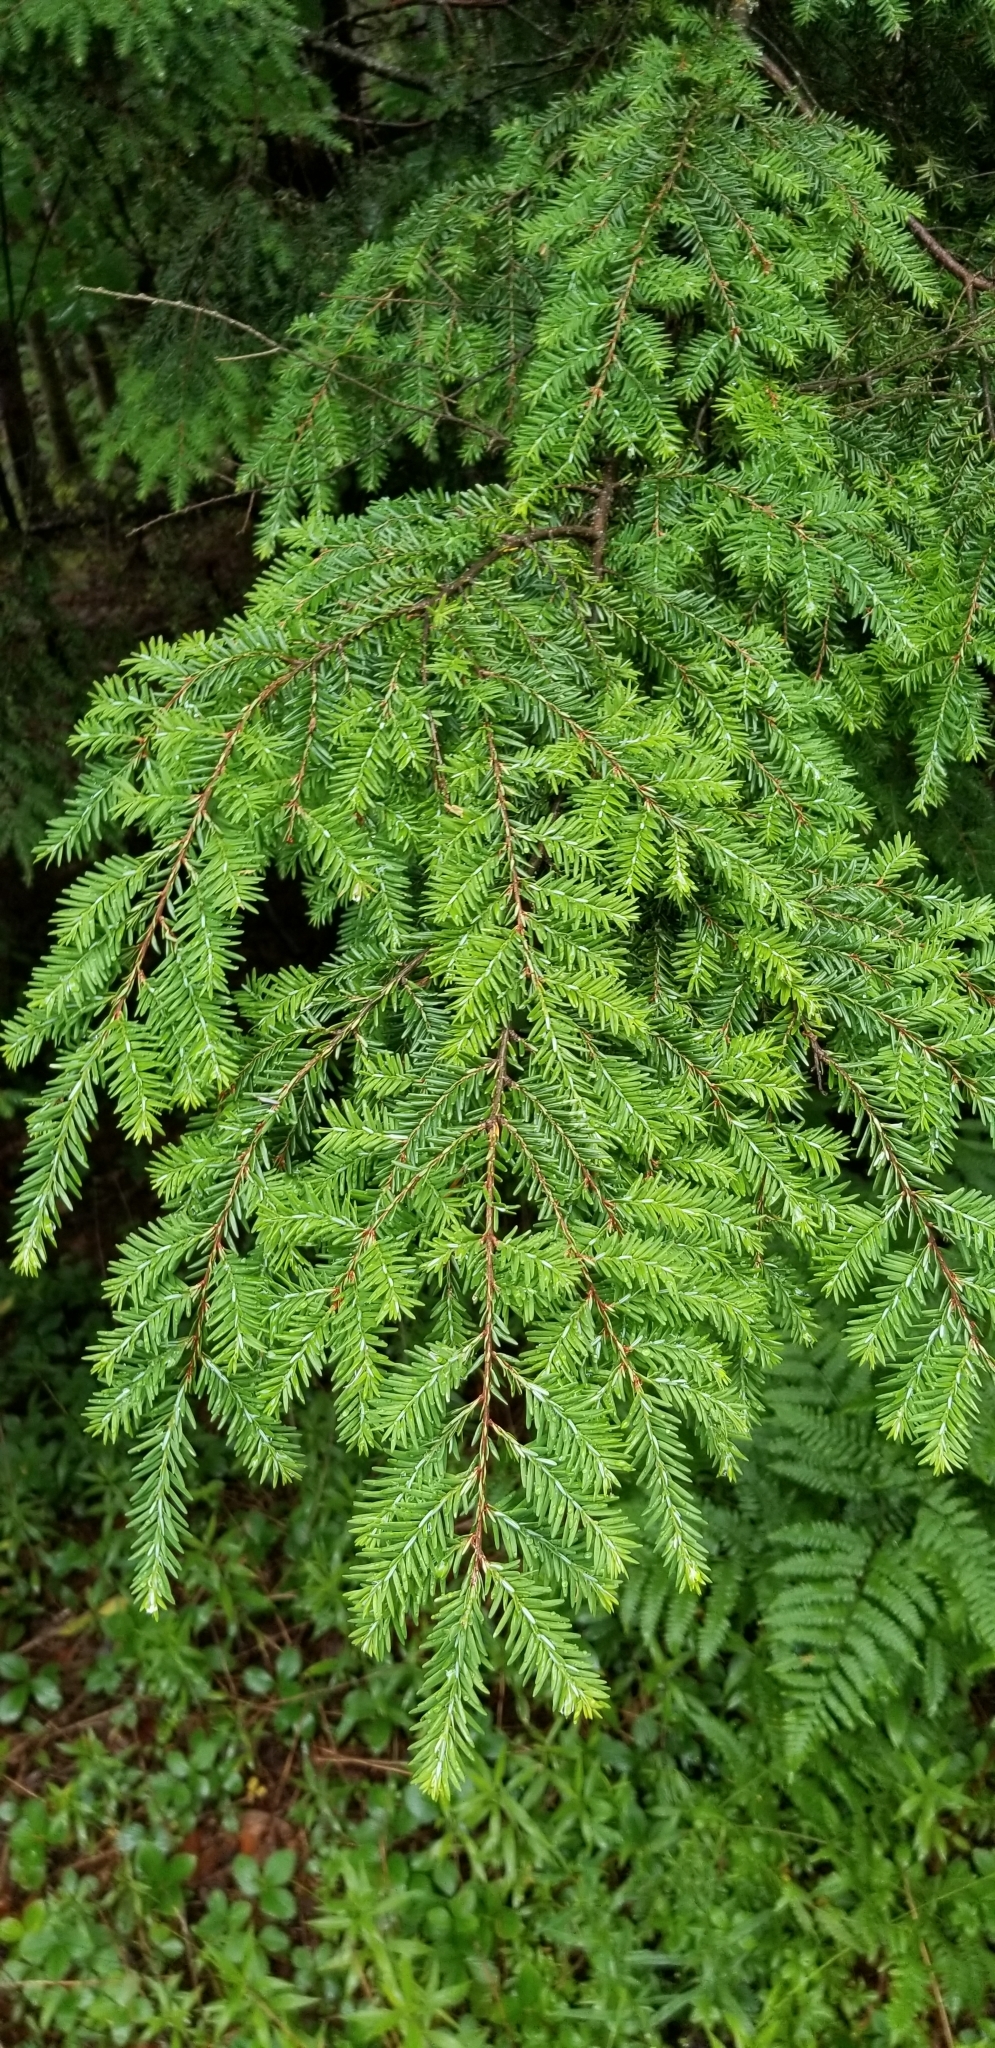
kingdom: Plantae
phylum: Tracheophyta
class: Pinopsida
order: Pinales
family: Pinaceae
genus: Tsuga
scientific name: Tsuga canadensis
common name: Eastern hemlock
